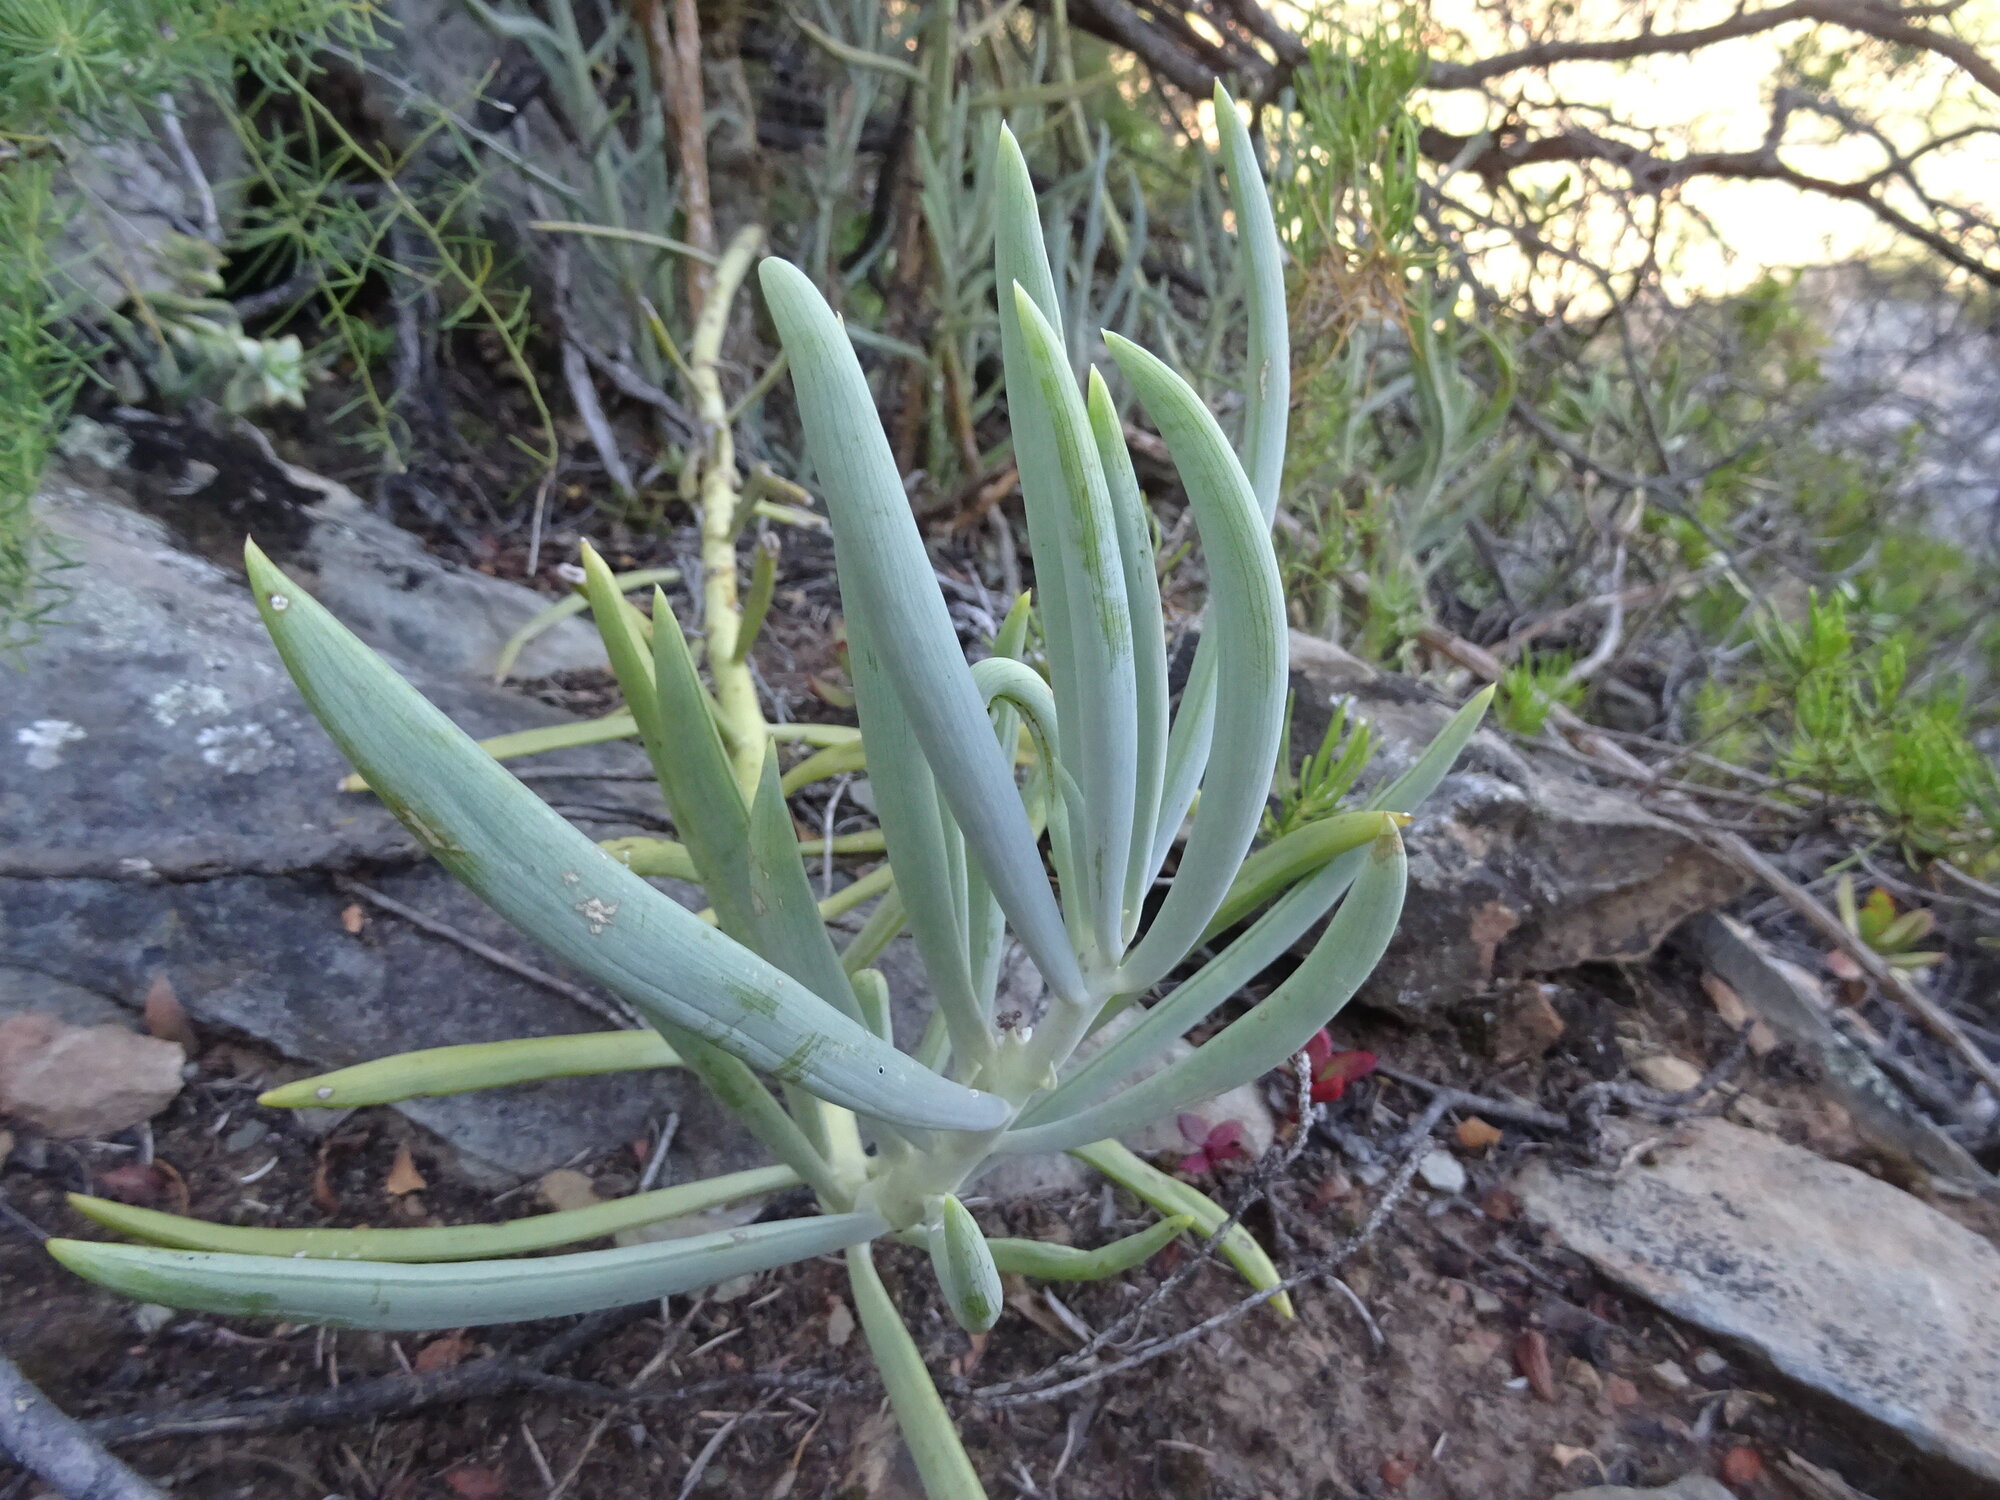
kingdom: Plantae
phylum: Tracheophyta
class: Magnoliopsida
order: Asterales
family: Asteraceae
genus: Curio
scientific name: Curio ficoides
